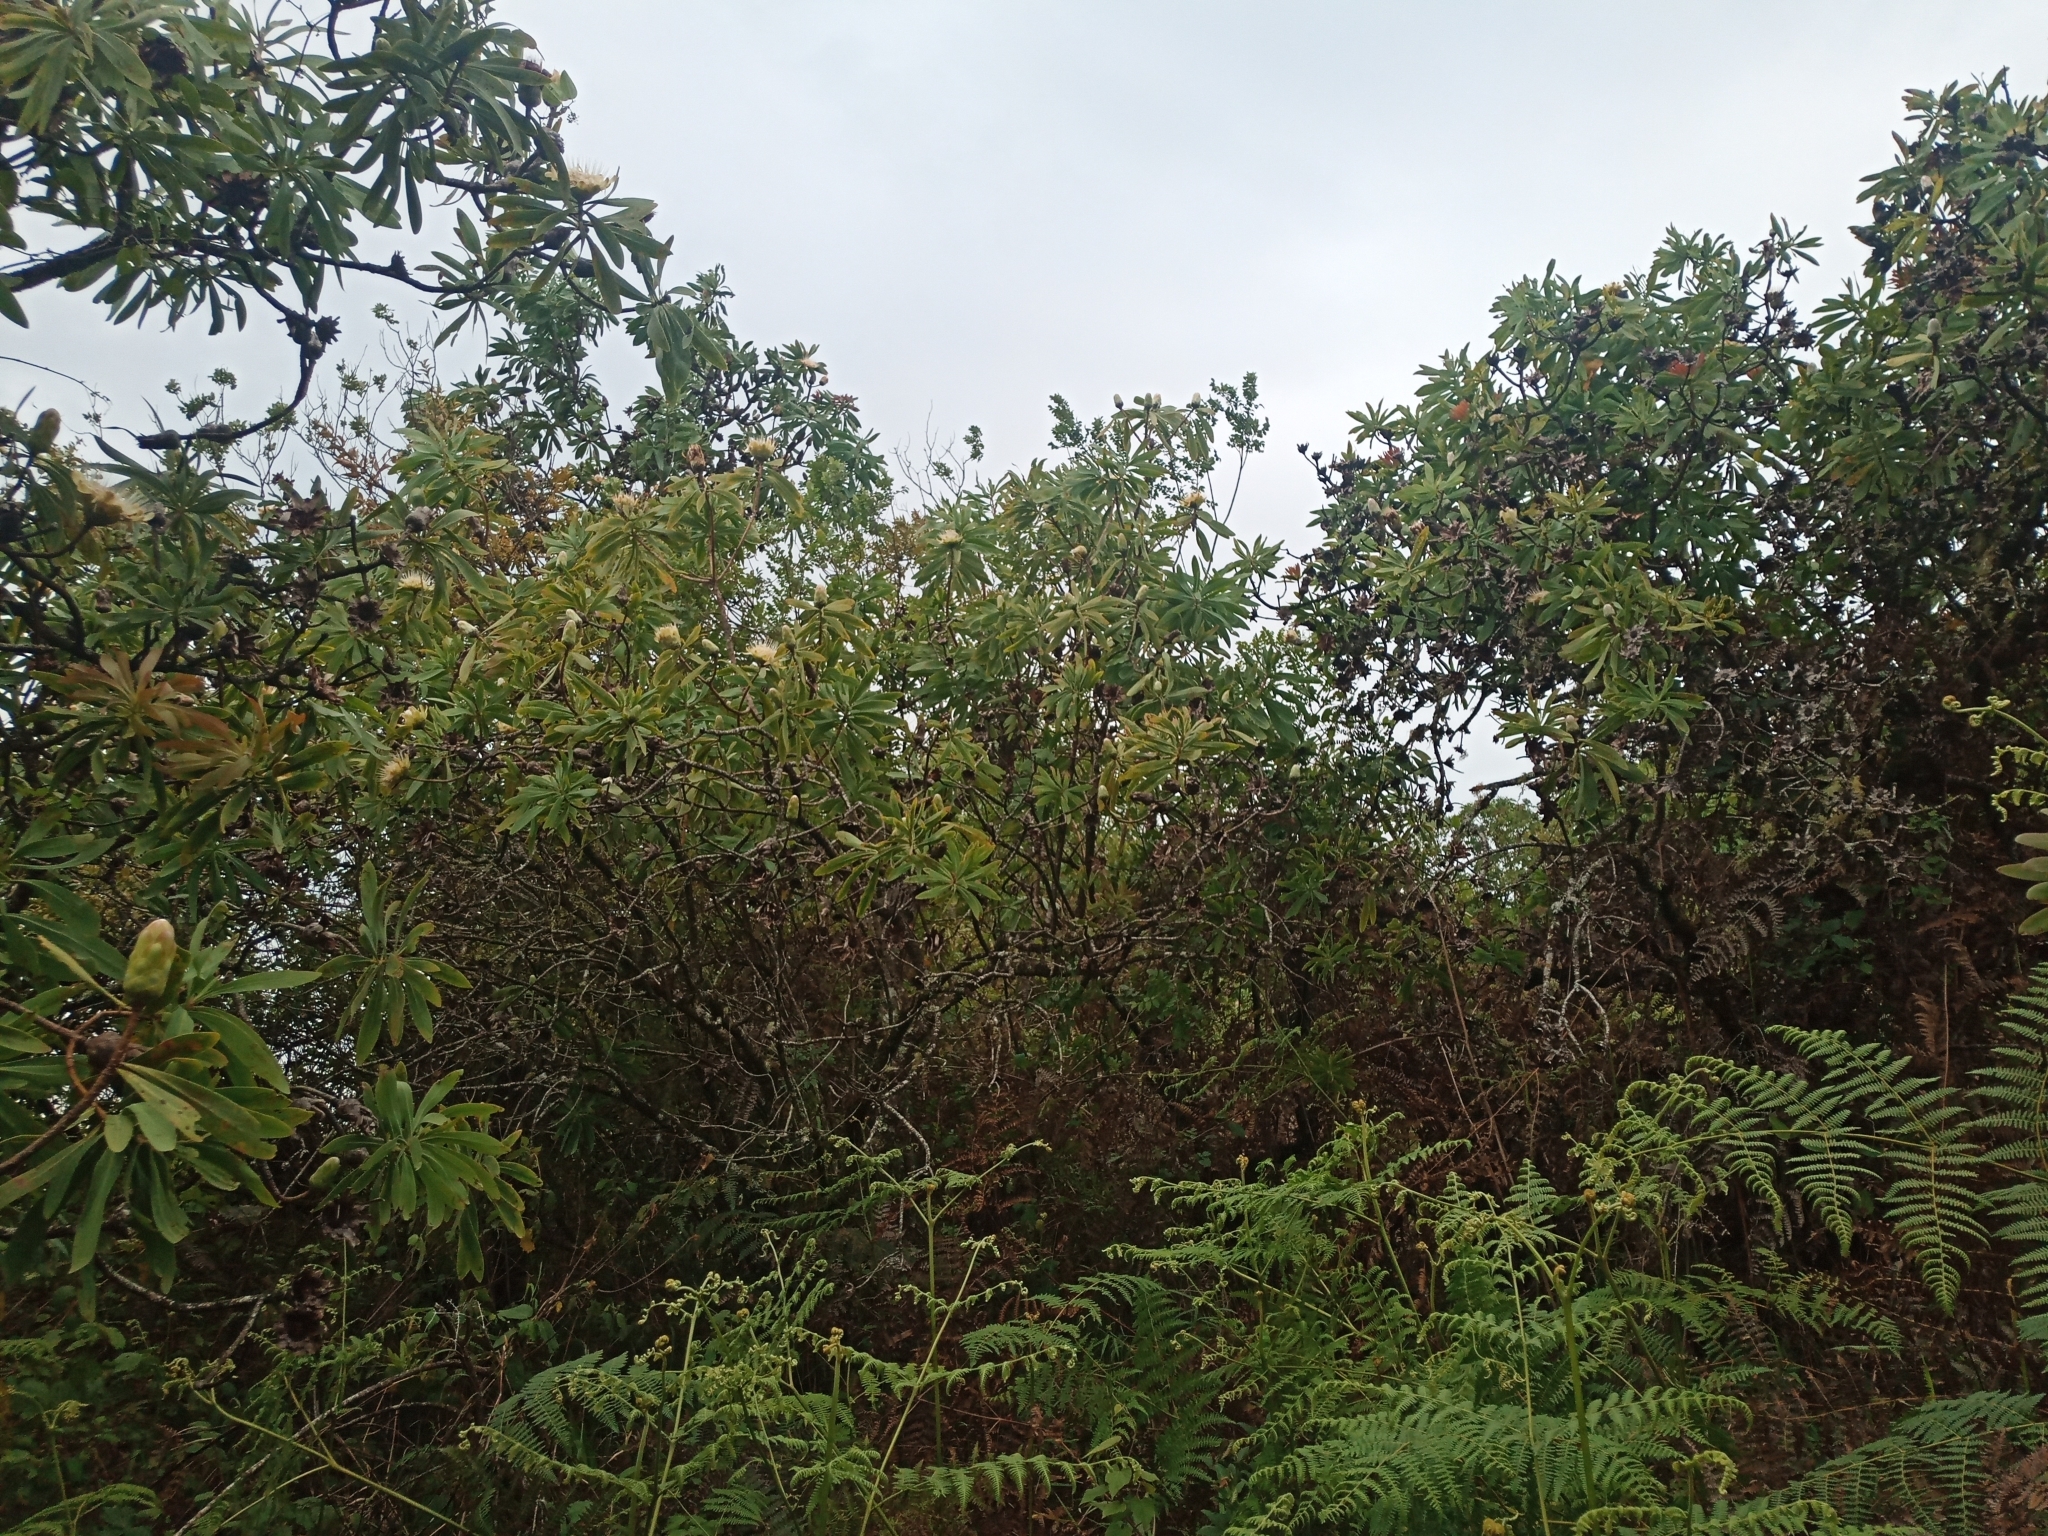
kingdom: Plantae
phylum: Tracheophyta
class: Magnoliopsida
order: Proteales
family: Proteaceae
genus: Protea
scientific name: Protea gaguedi
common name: African protea
